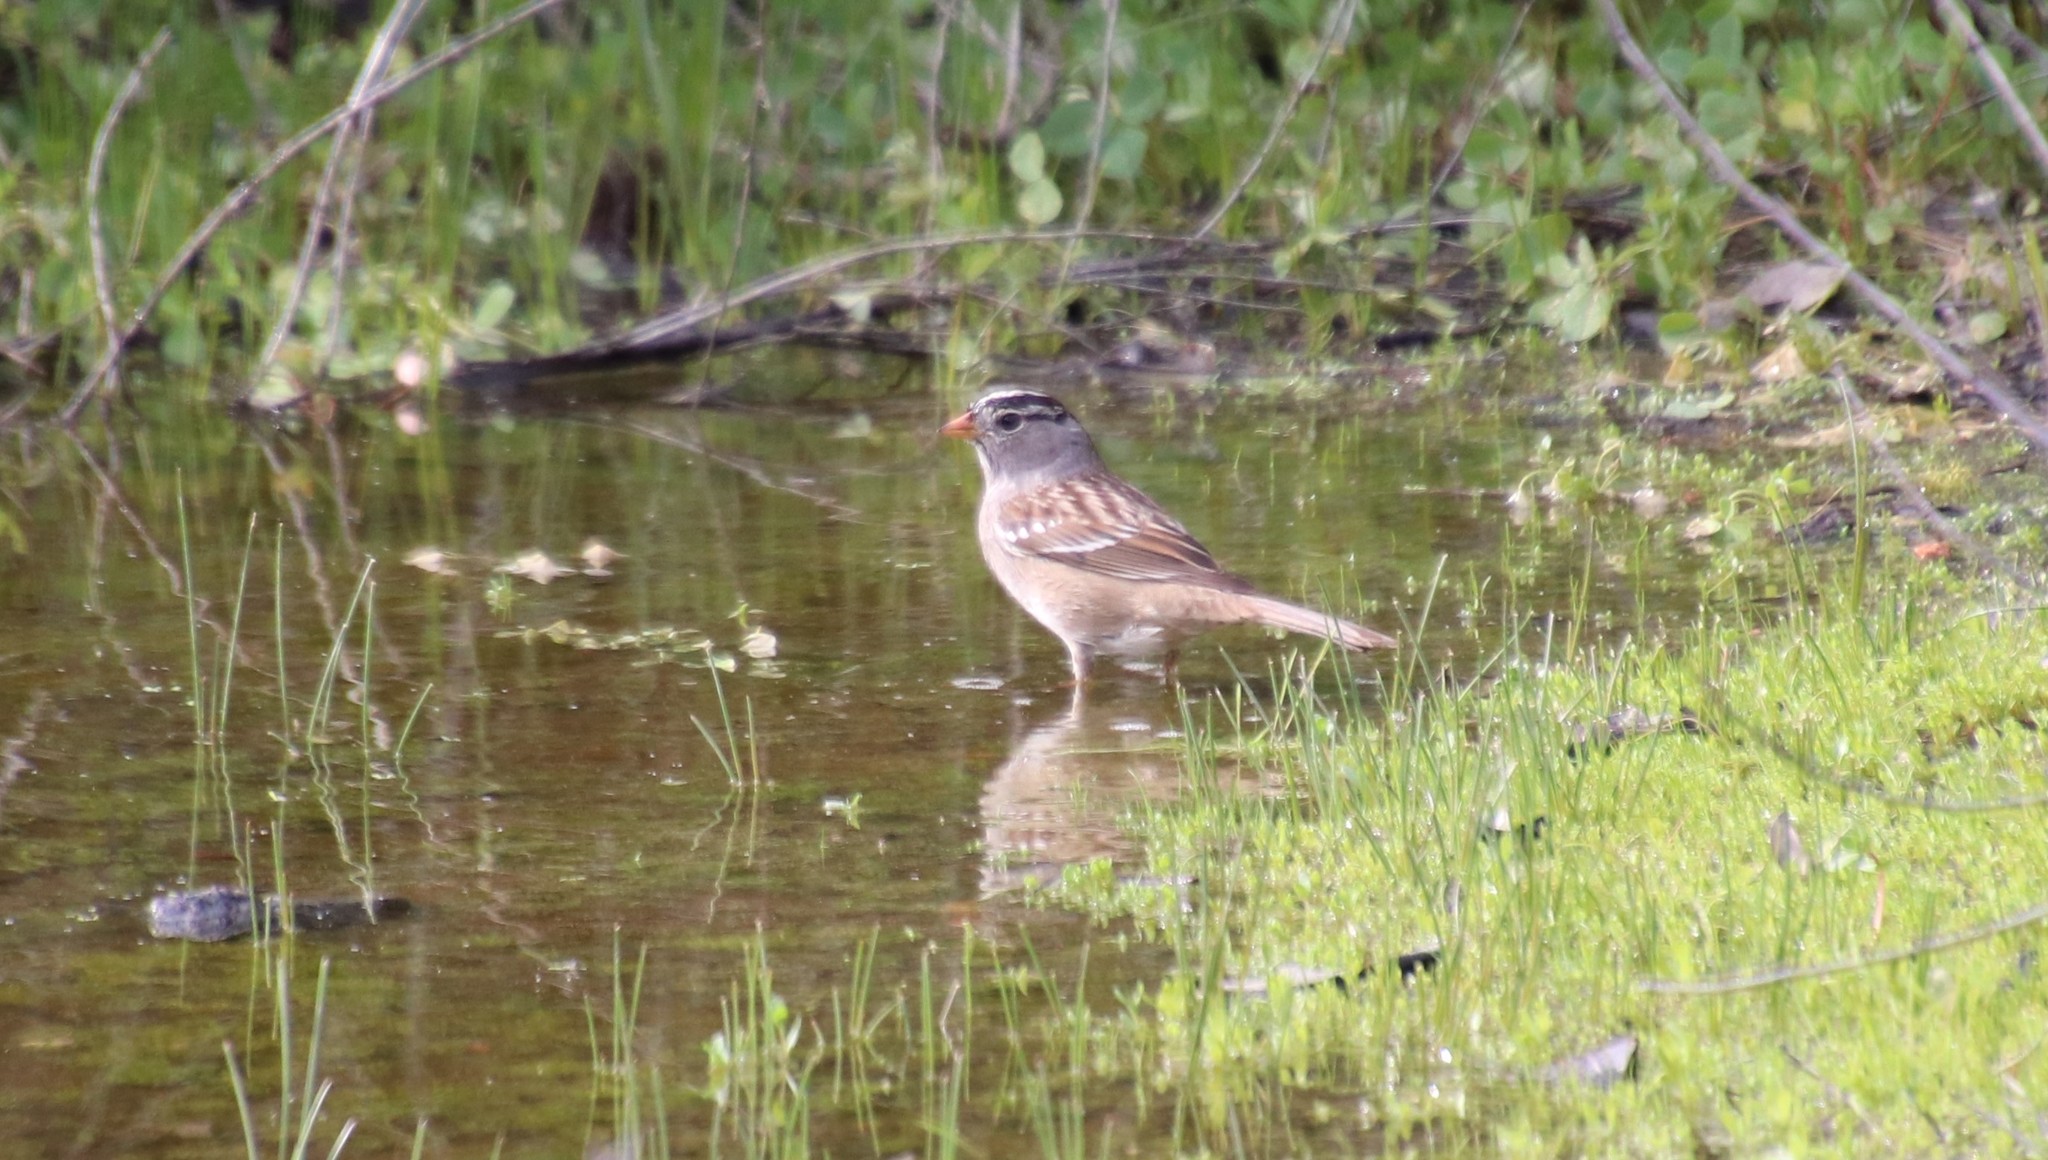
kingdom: Animalia
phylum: Chordata
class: Aves
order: Passeriformes
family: Passerellidae
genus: Zonotrichia
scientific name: Zonotrichia leucophrys
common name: White-crowned sparrow
